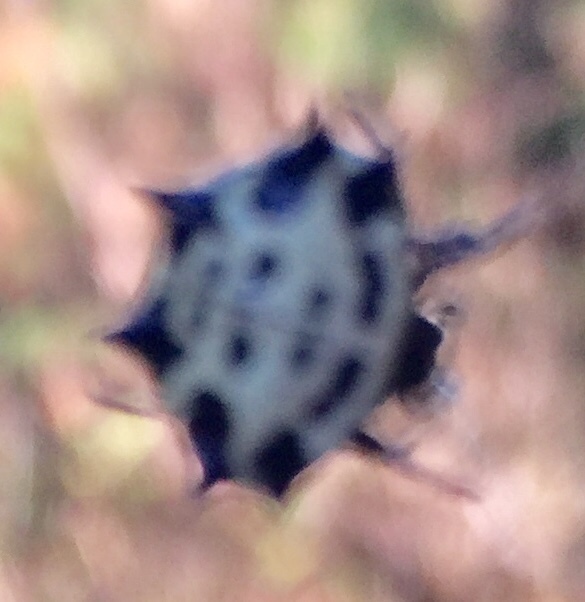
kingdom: Animalia
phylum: Arthropoda
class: Arachnida
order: Araneae
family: Araneidae
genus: Gasteracantha
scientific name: Gasteracantha cancriformis
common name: Orb weavers
